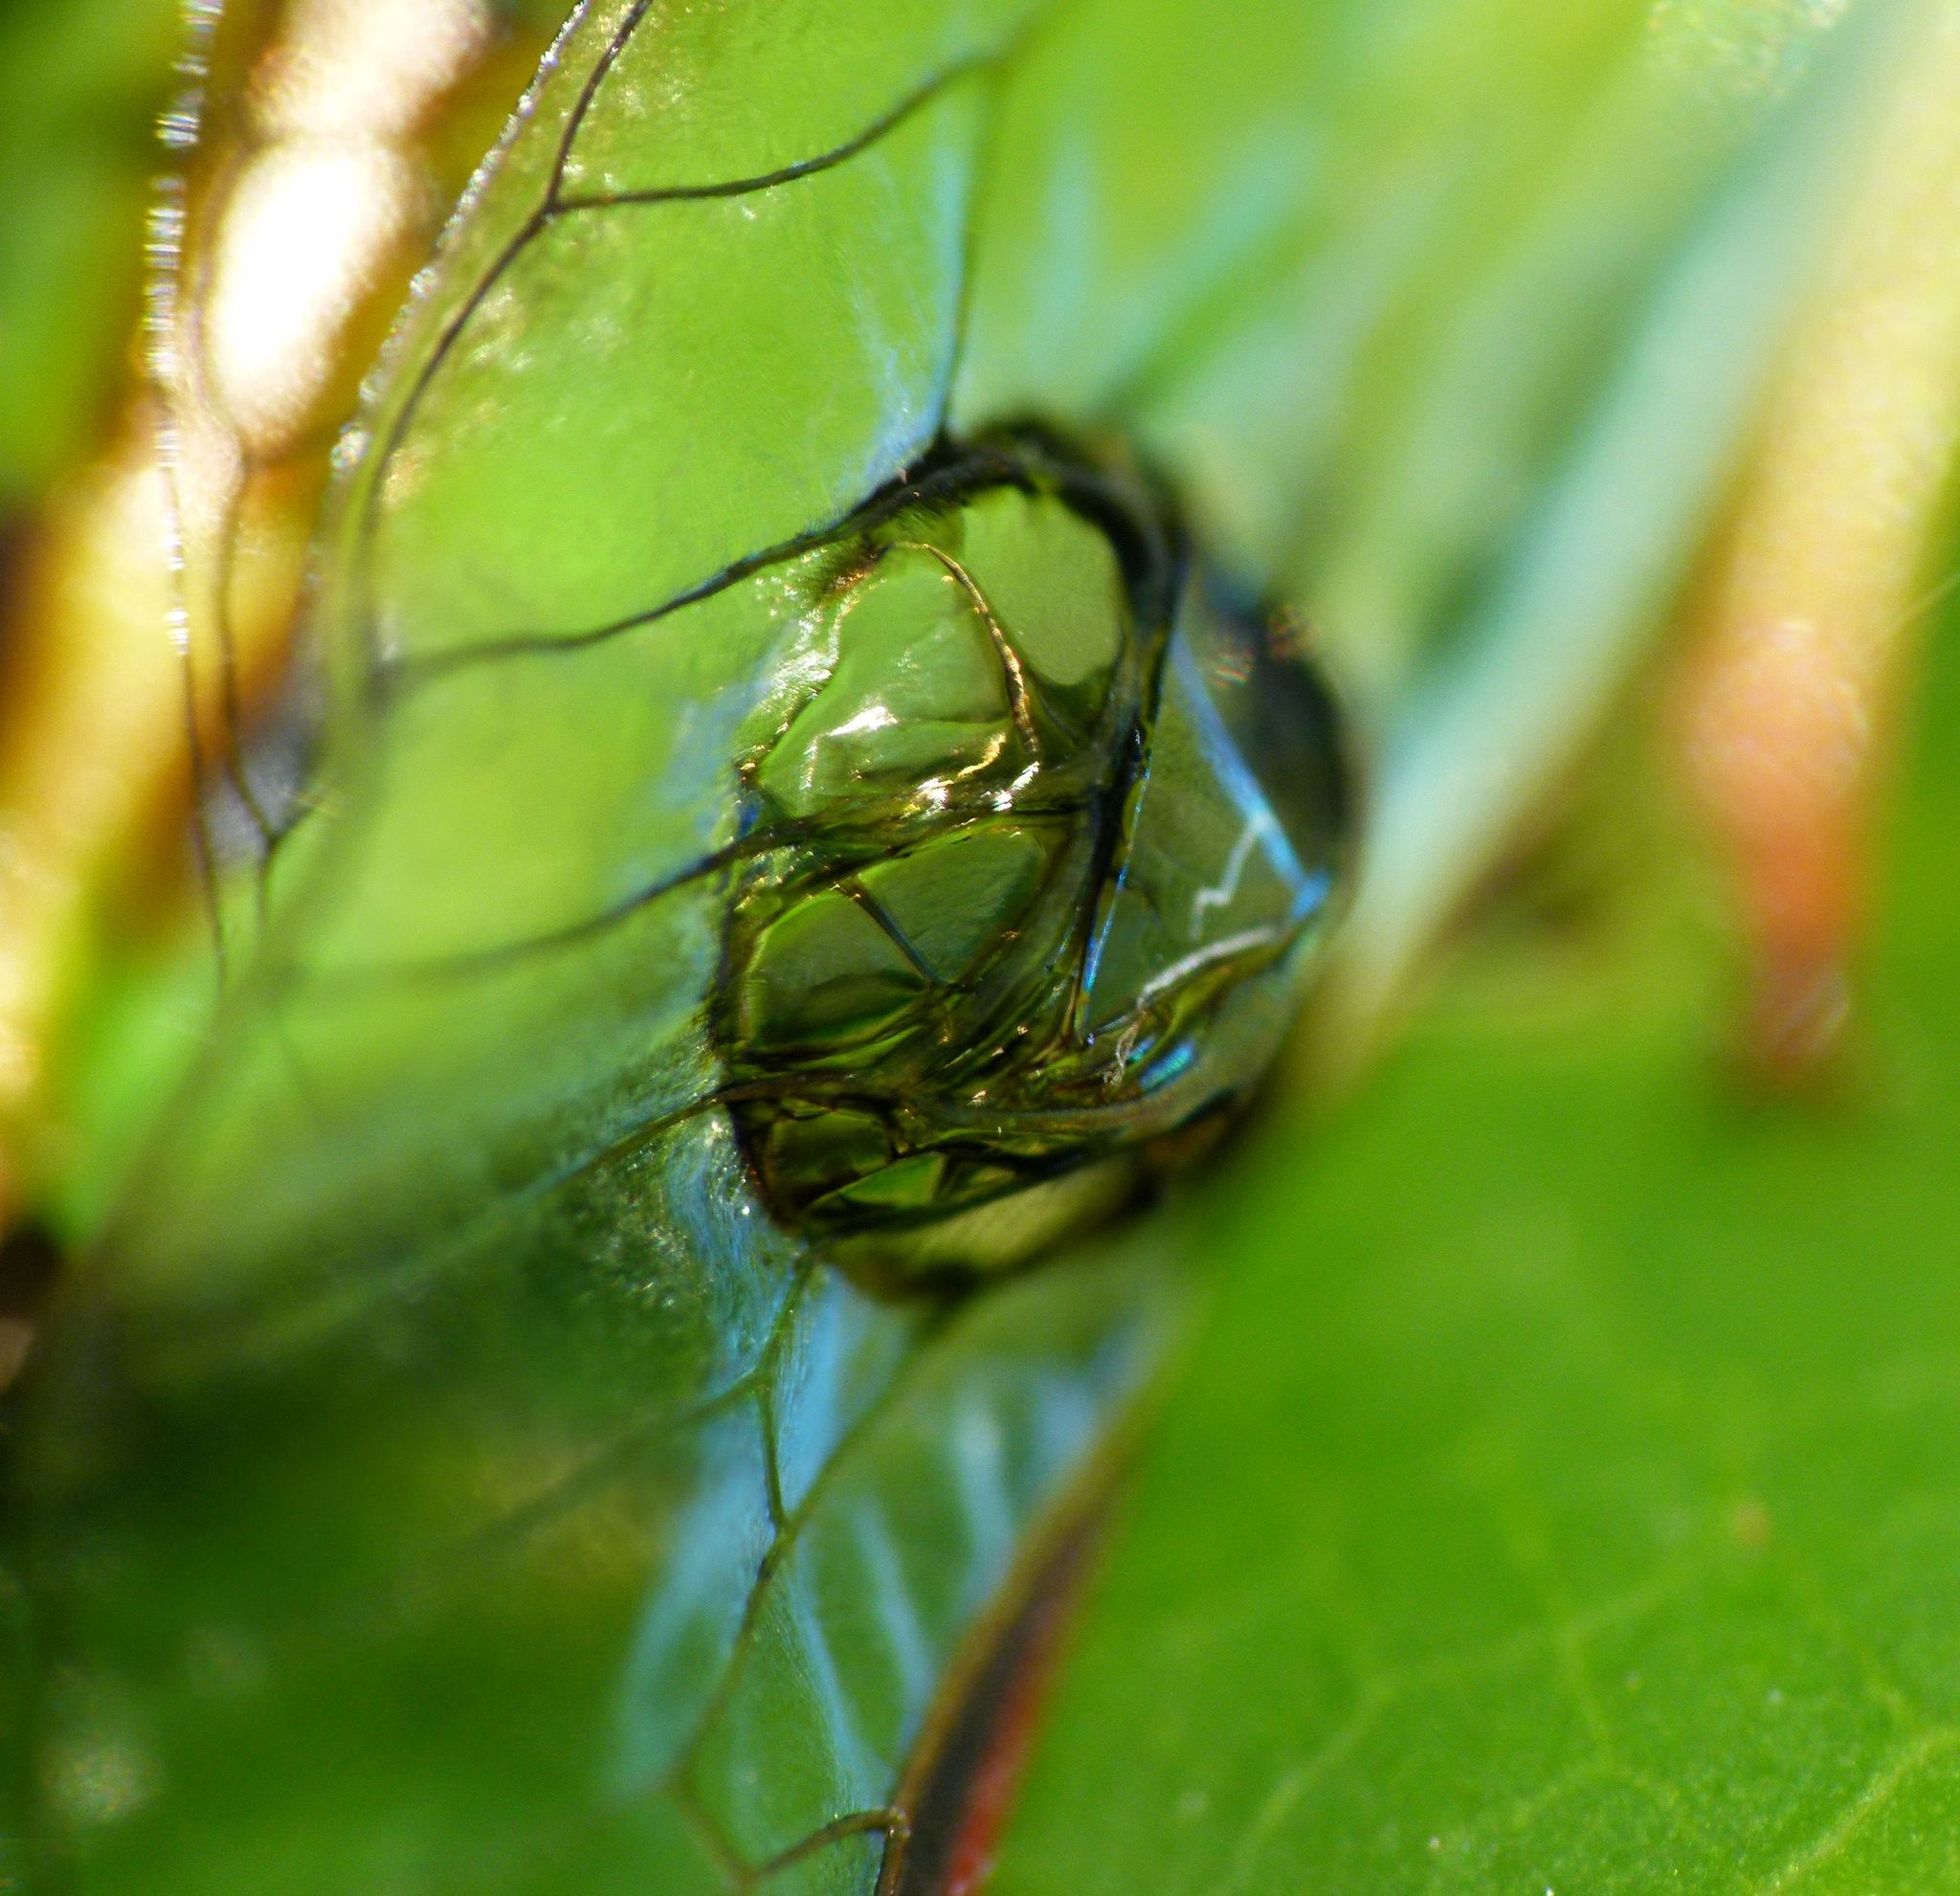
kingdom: Animalia
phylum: Arthropoda
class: Insecta
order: Hemiptera
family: Cicadidae
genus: Kikihia
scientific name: Kikihia subalpina
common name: Chathams cicada
